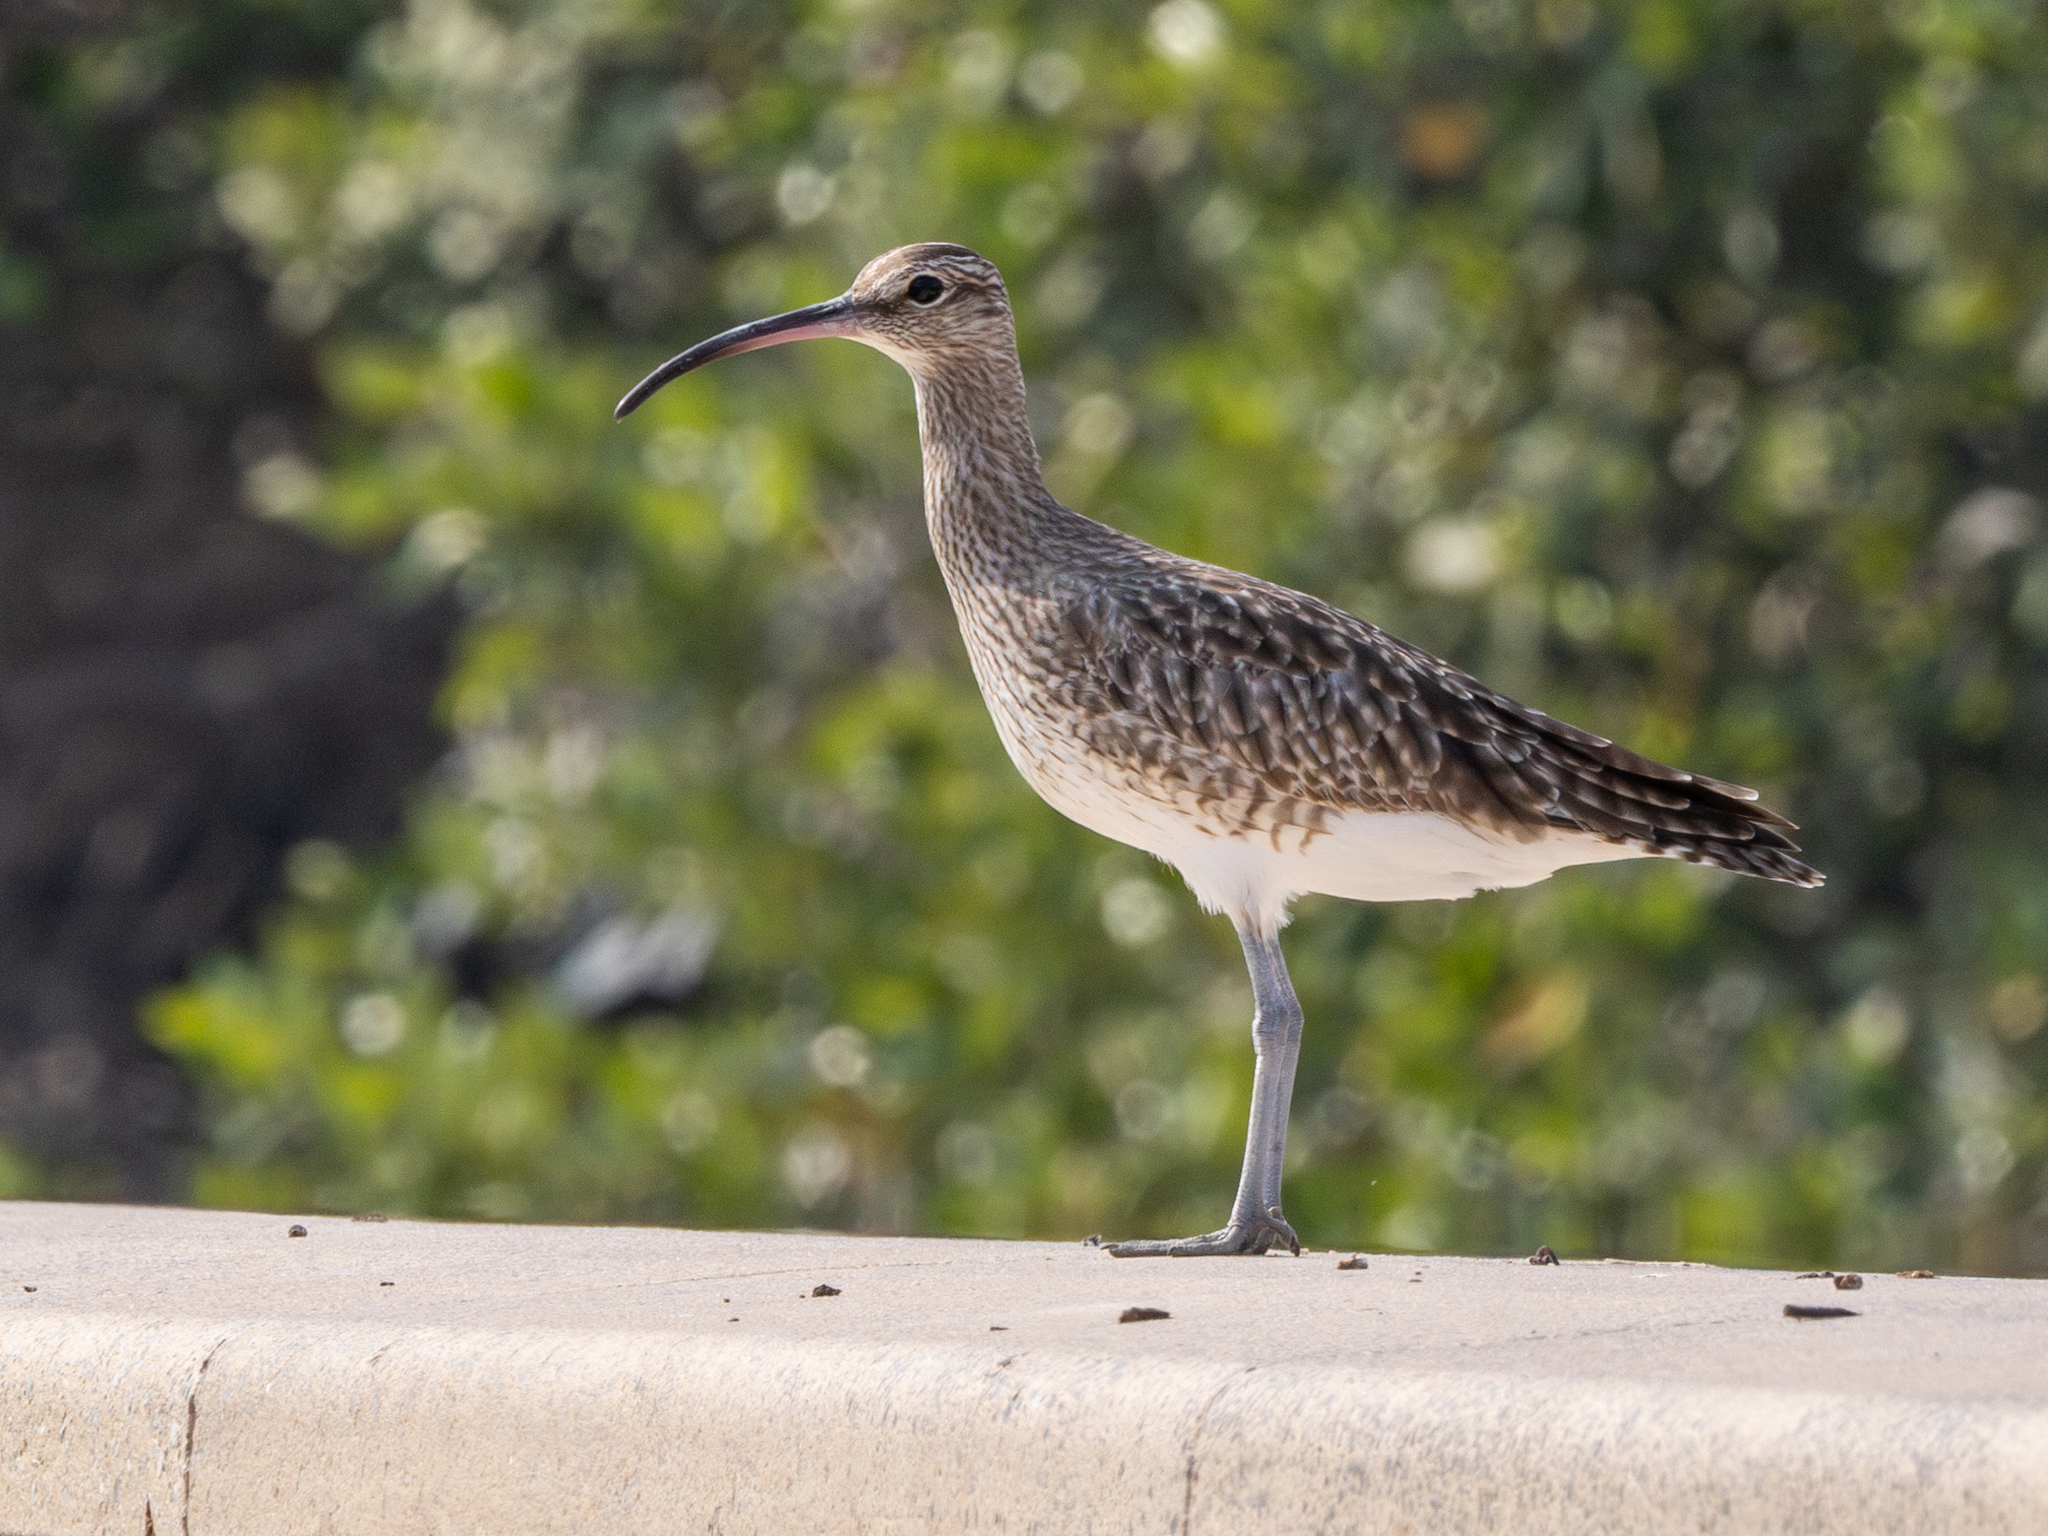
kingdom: Animalia
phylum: Chordata
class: Aves
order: Charadriiformes
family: Scolopacidae
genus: Numenius
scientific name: Numenius phaeopus
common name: Whimbrel
